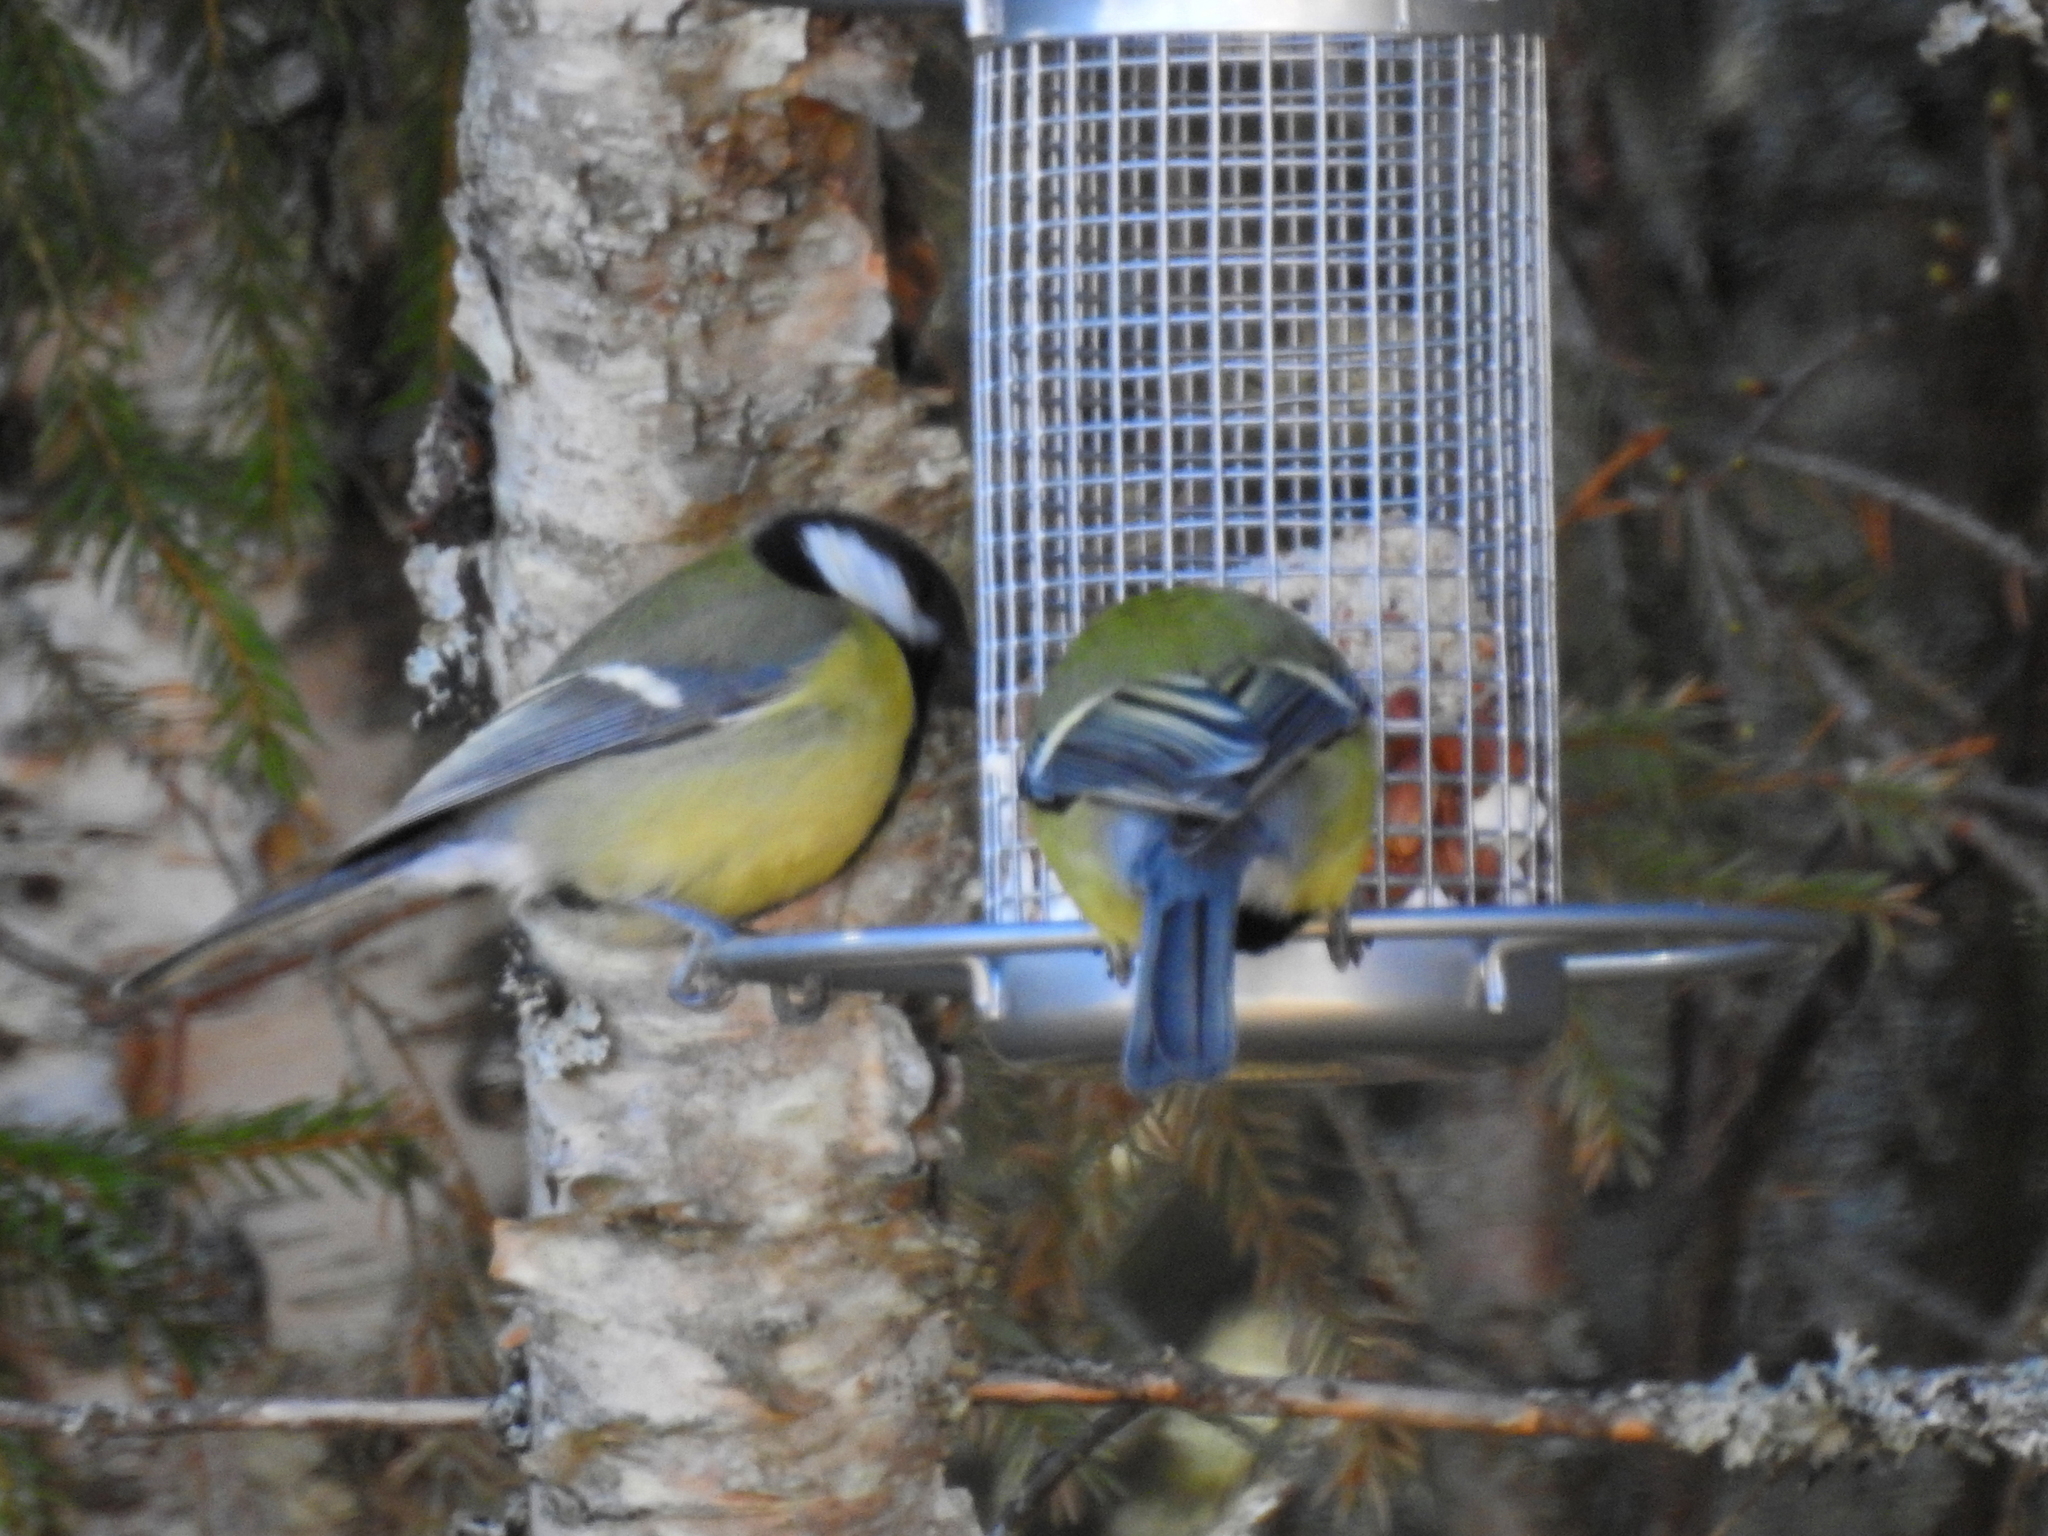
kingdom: Animalia
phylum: Chordata
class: Aves
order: Passeriformes
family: Paridae
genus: Parus
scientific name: Parus major
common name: Great tit
